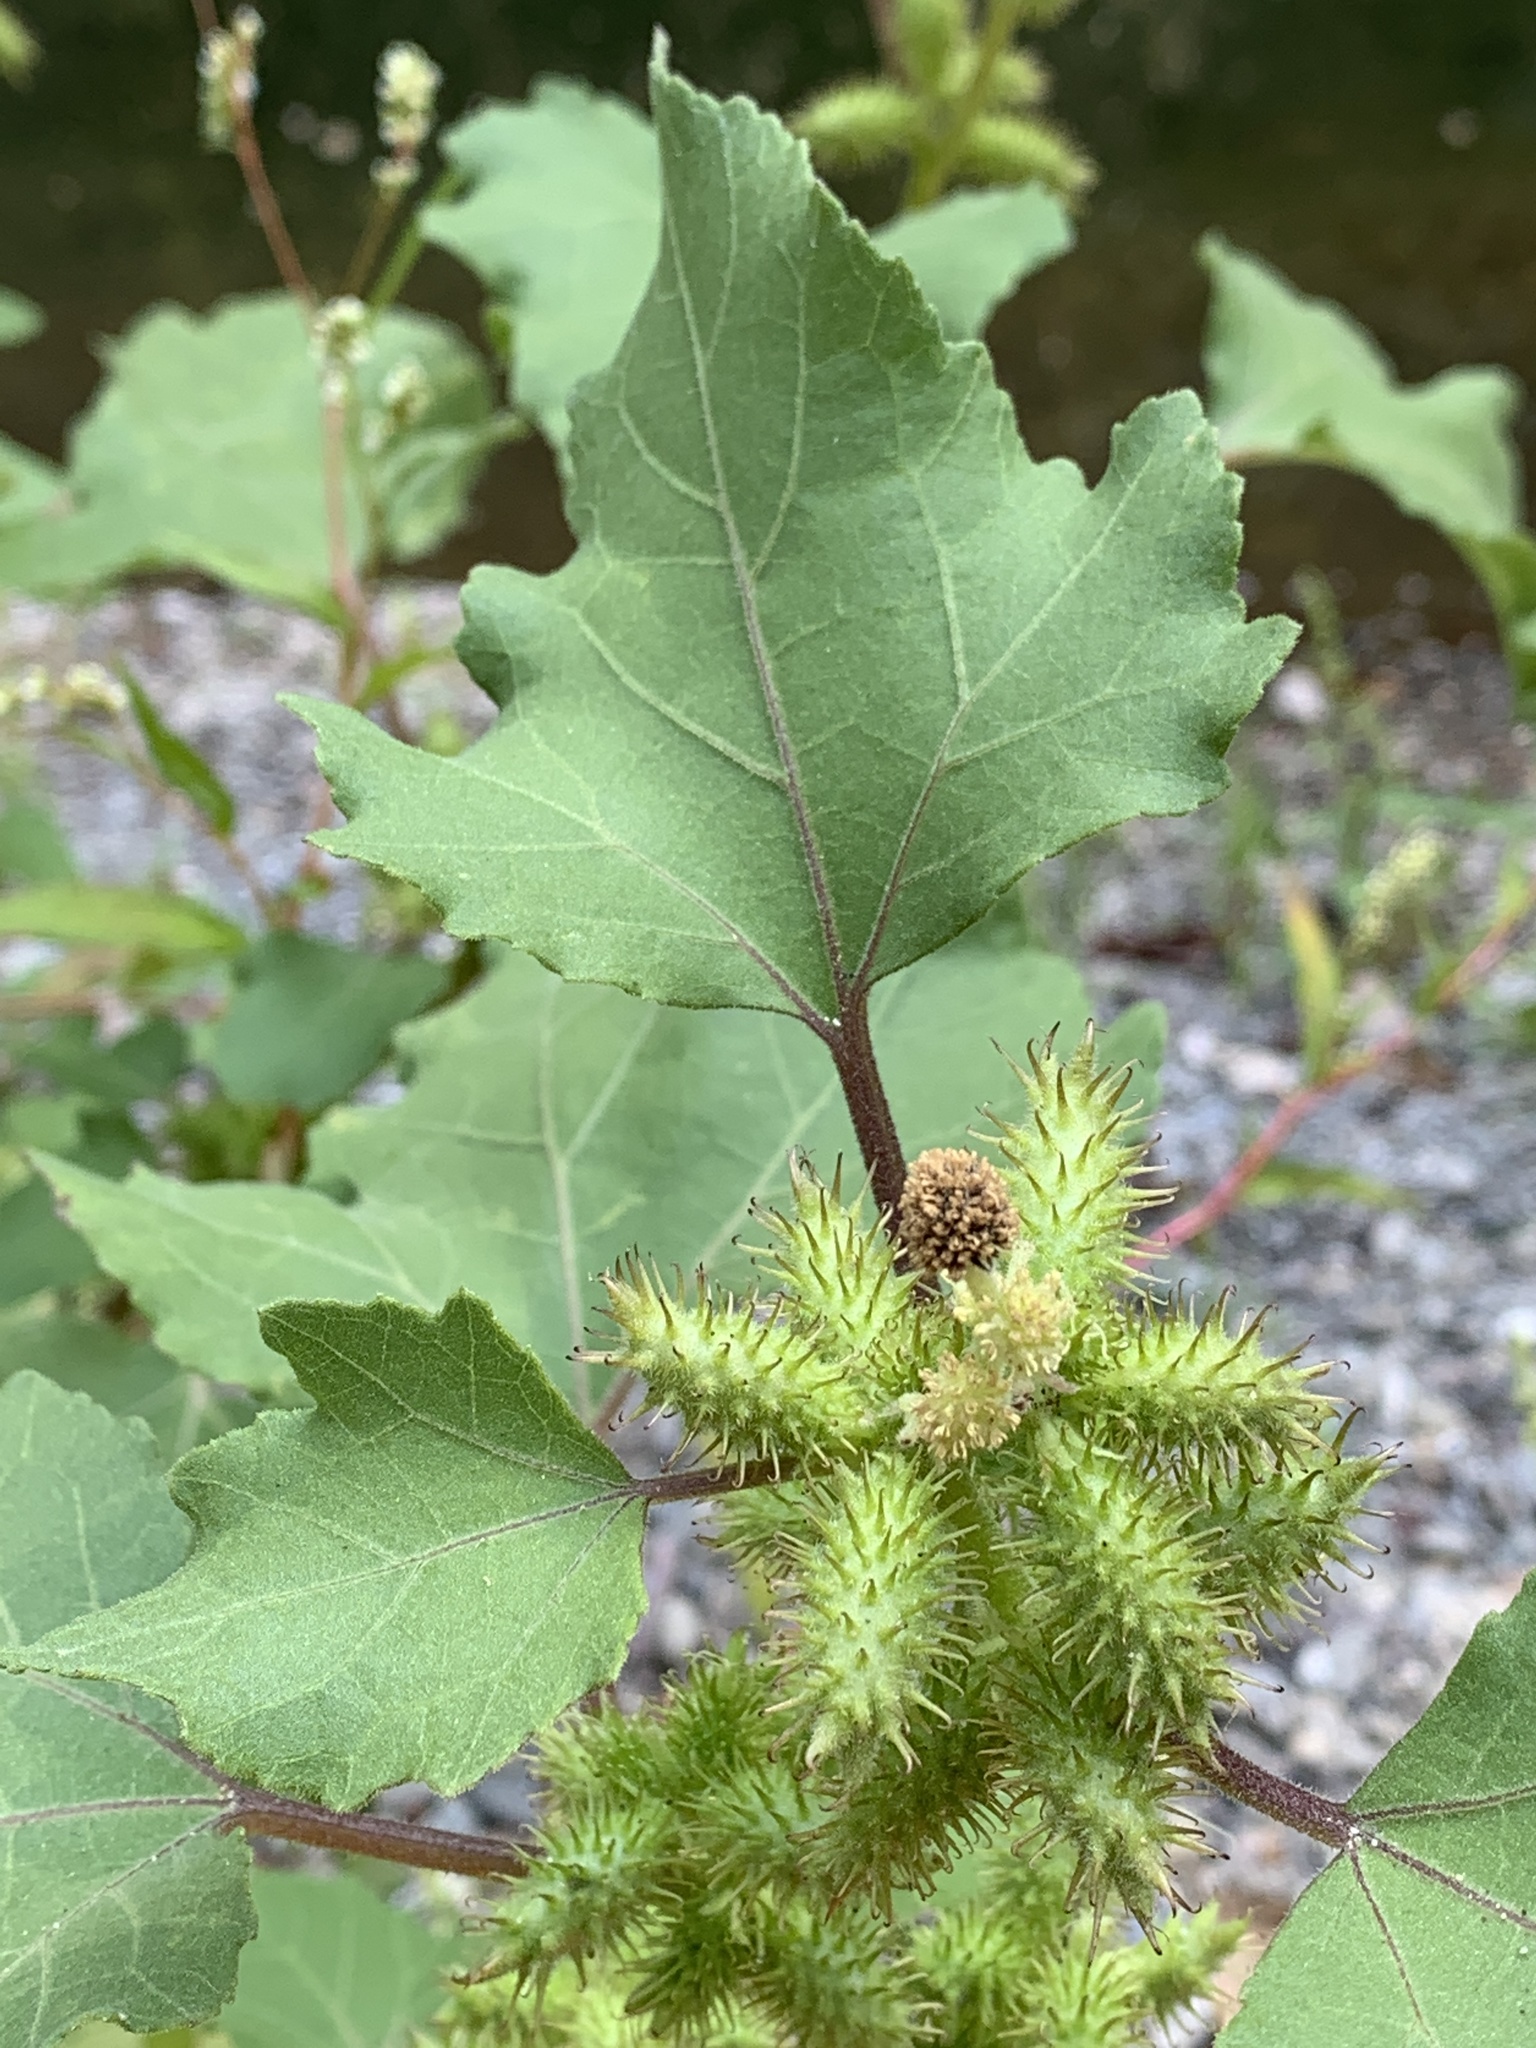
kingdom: Plantae
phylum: Tracheophyta
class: Magnoliopsida
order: Asterales
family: Asteraceae
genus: Xanthium
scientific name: Xanthium strumarium
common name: Rough cocklebur
